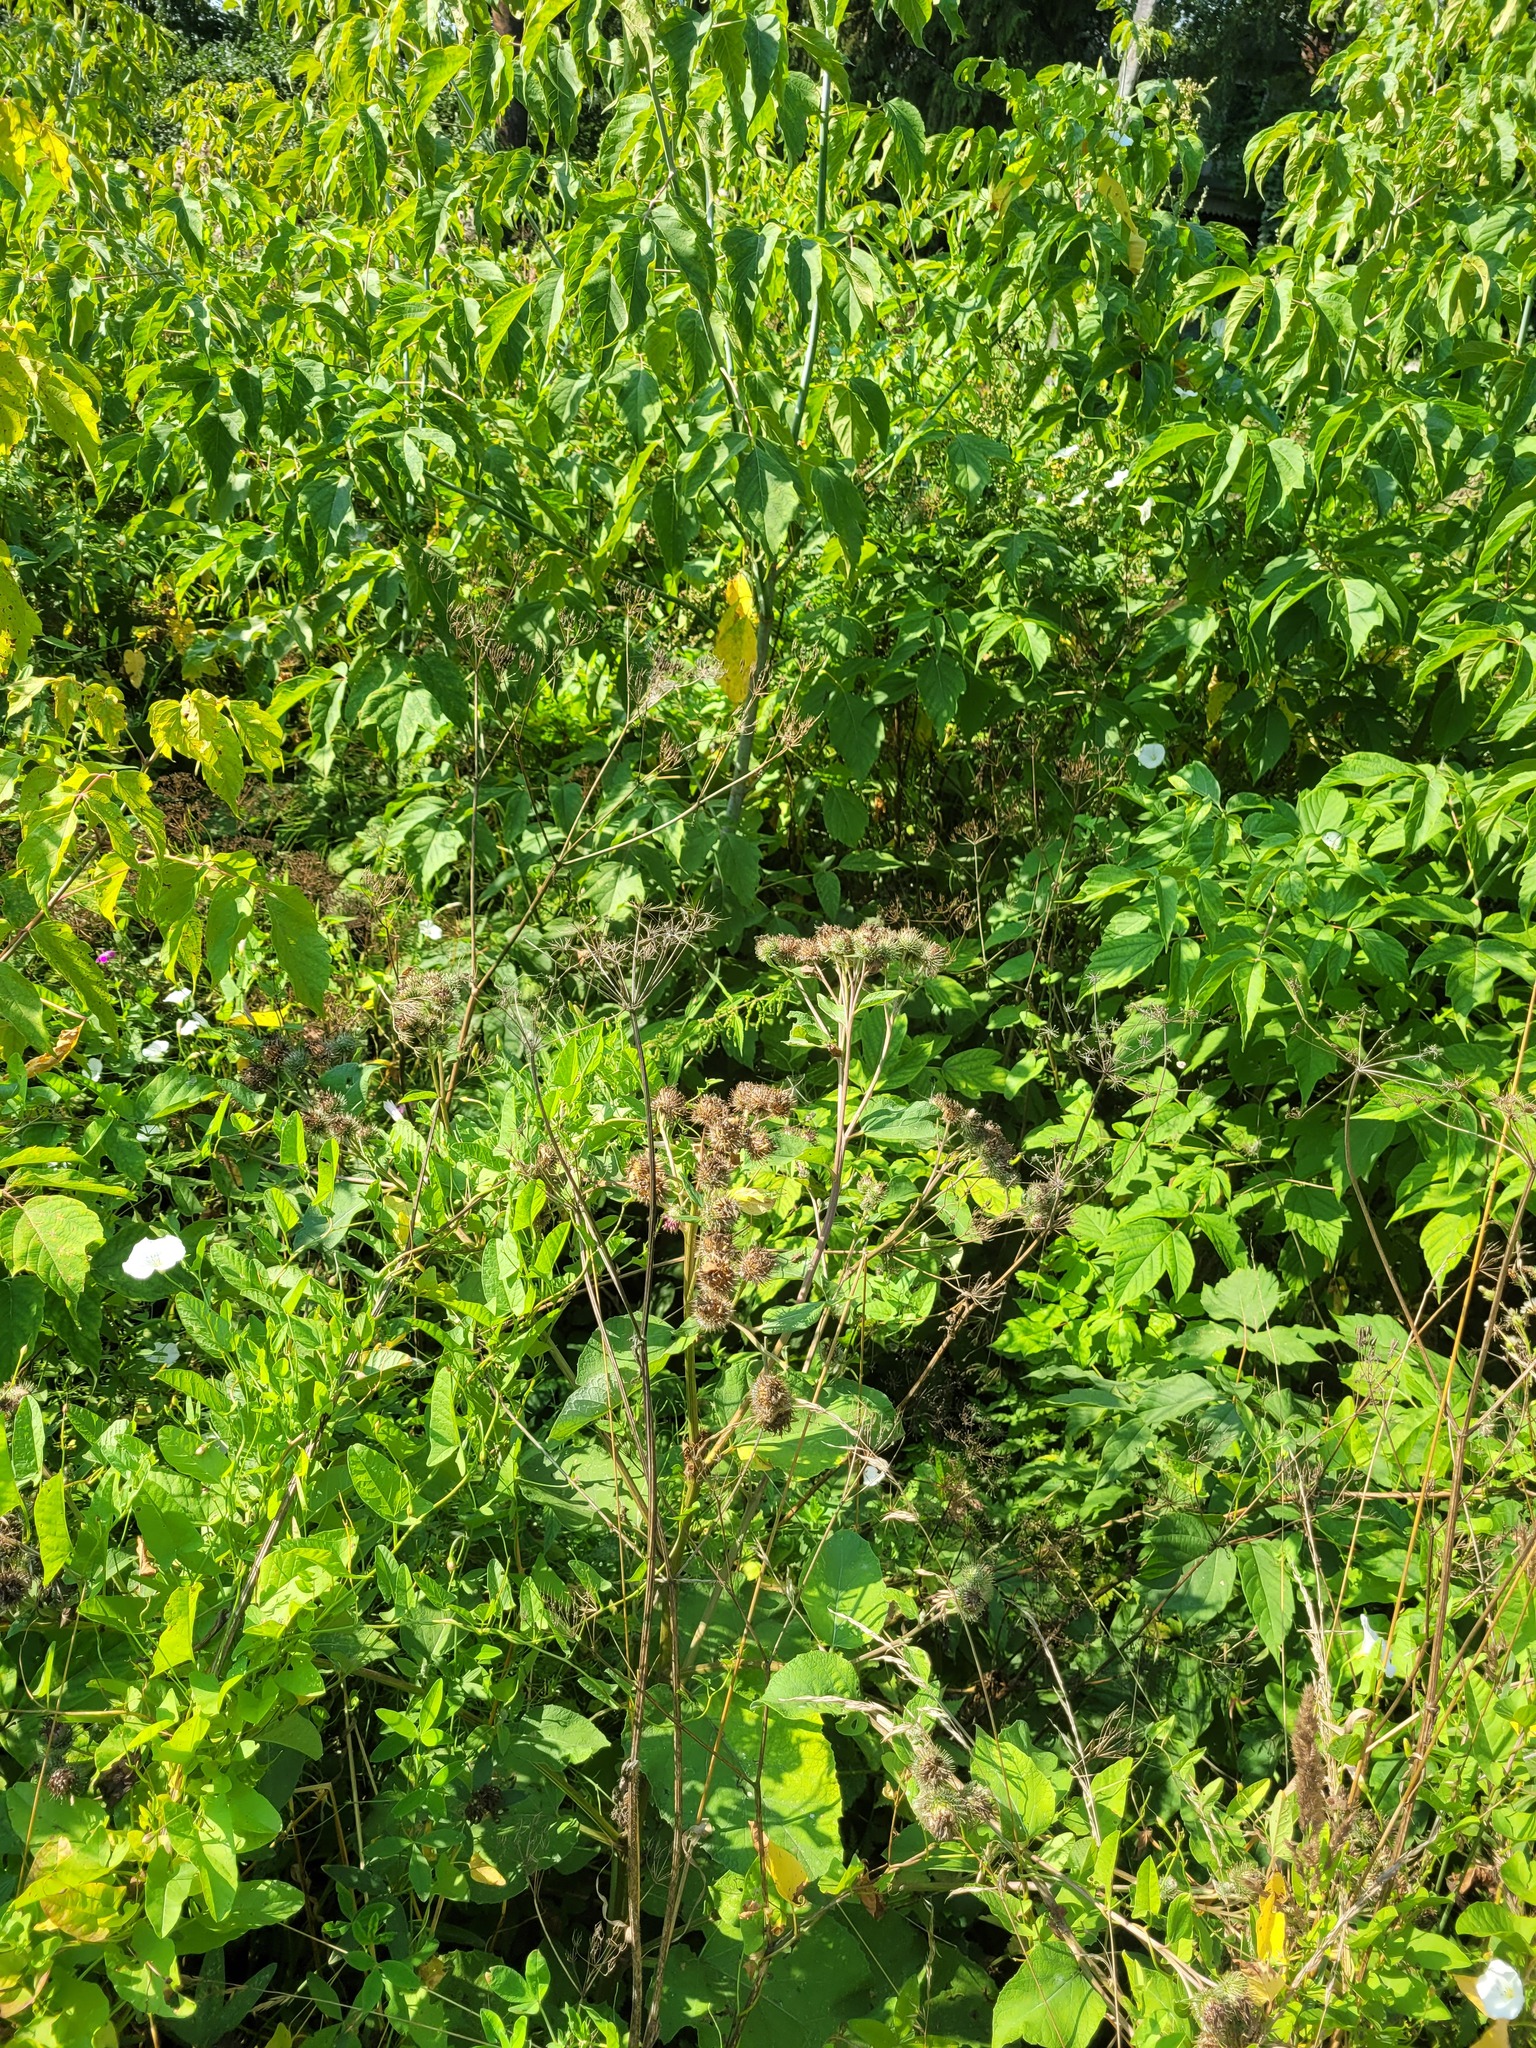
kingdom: Plantae
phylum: Tracheophyta
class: Magnoliopsida
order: Asterales
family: Asteraceae
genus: Arctium
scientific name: Arctium tomentosum
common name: Woolly burdock
